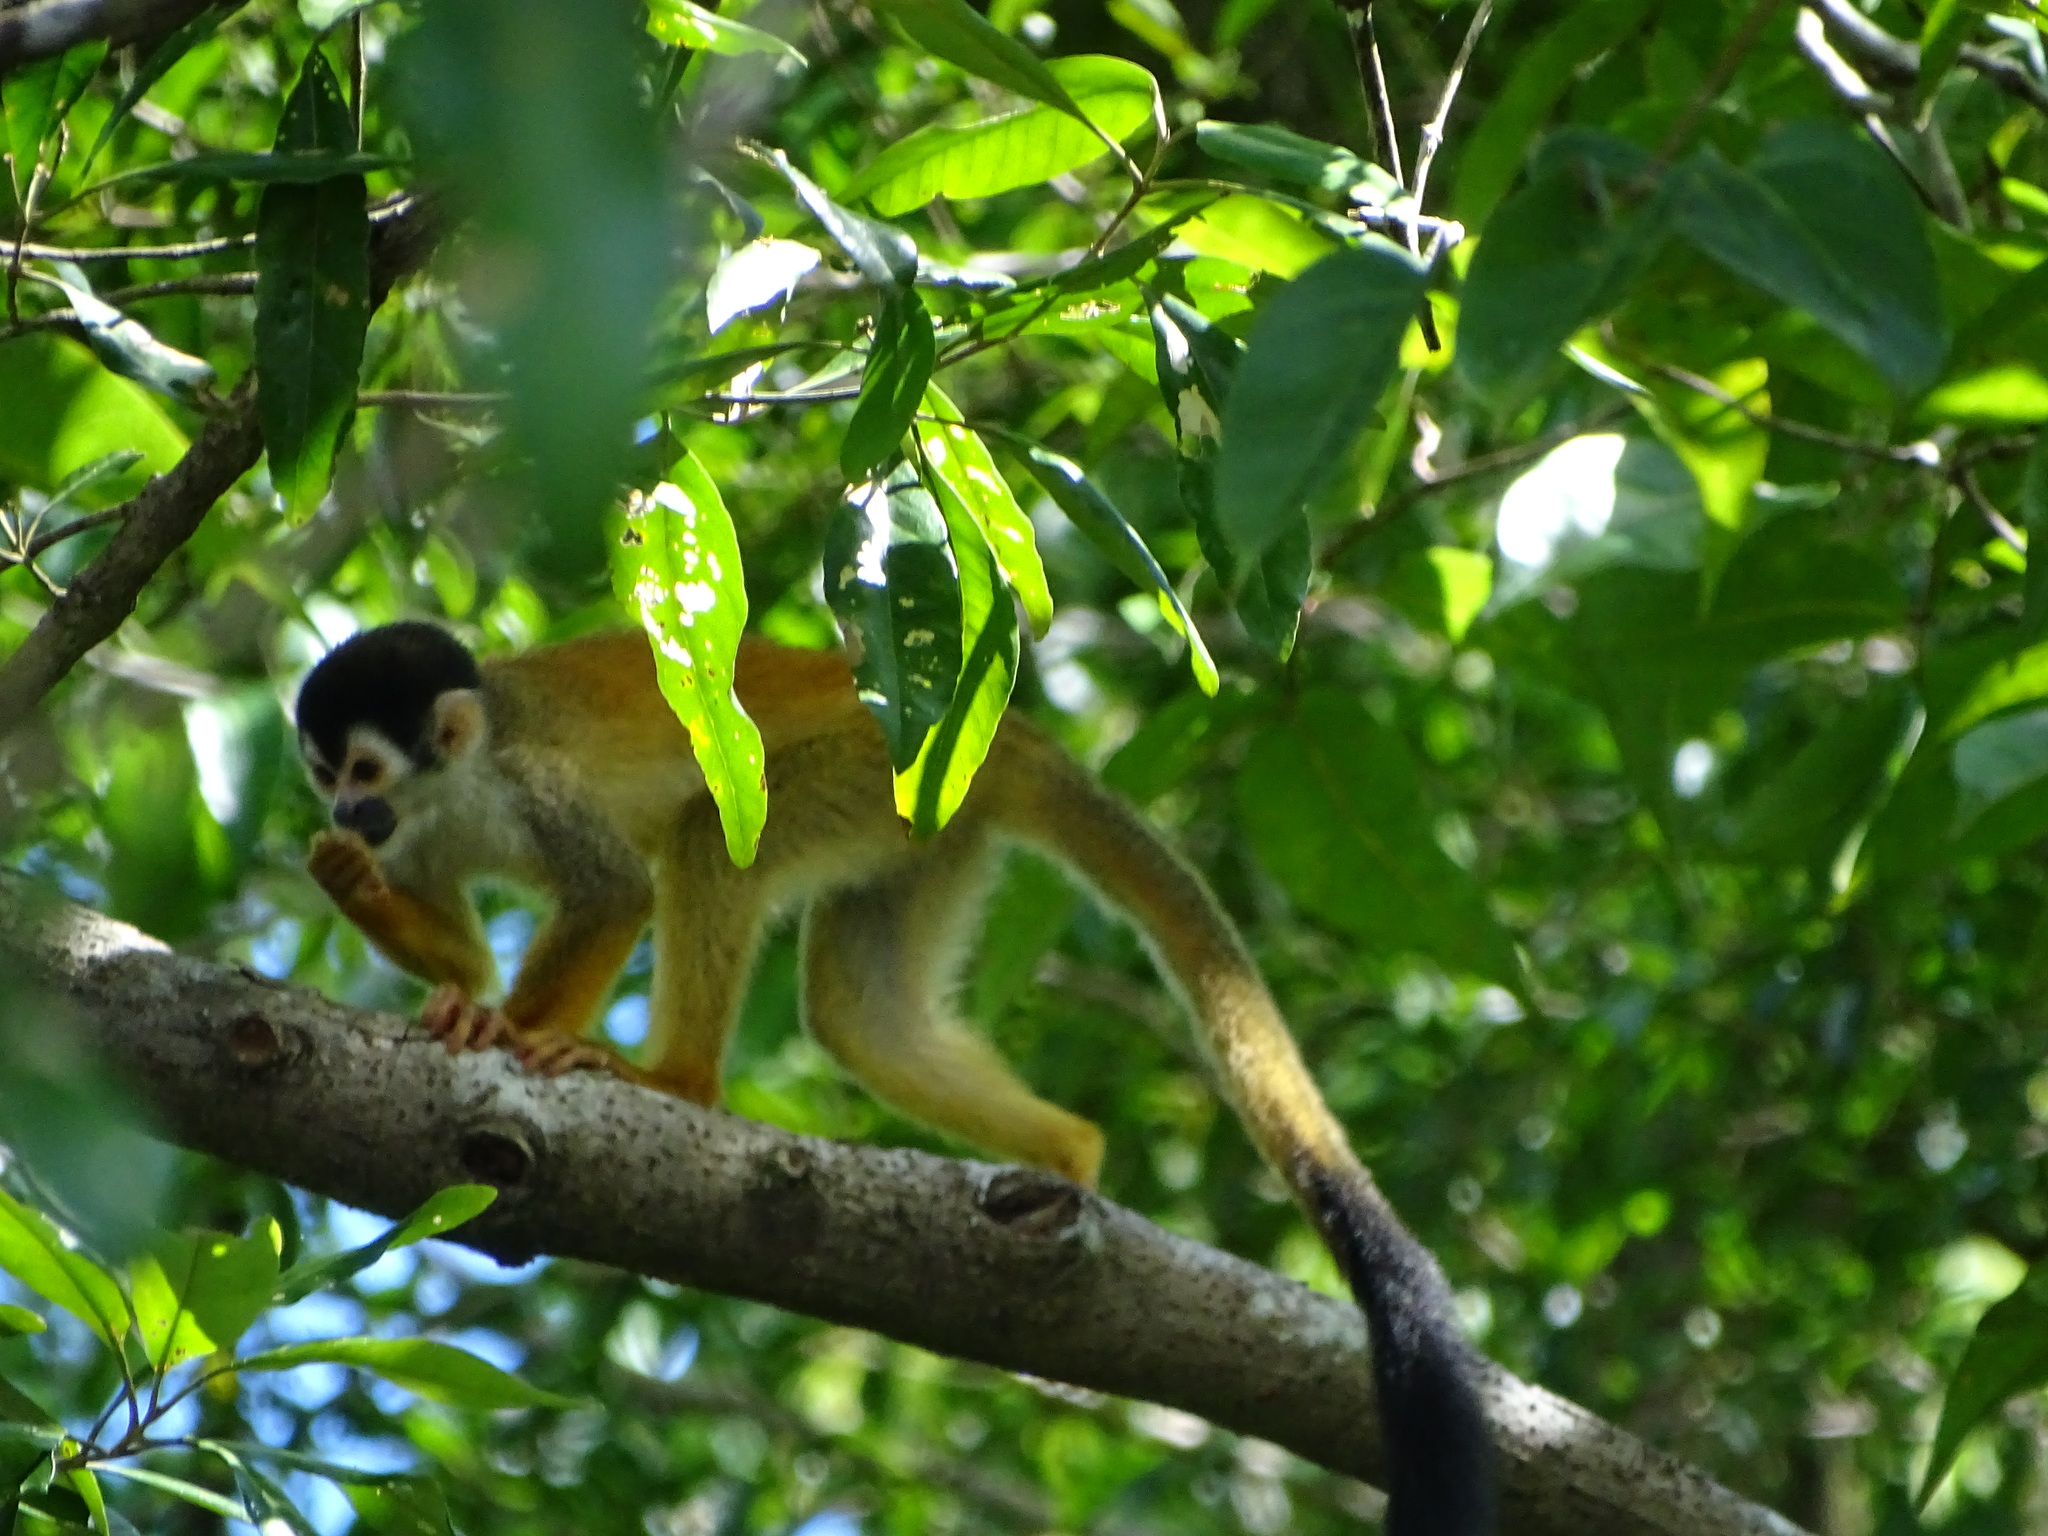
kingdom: Animalia
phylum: Chordata
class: Mammalia
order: Primates
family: Cebidae
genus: Saimiri
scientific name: Saimiri oerstedii
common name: Central american squirrel monkey
